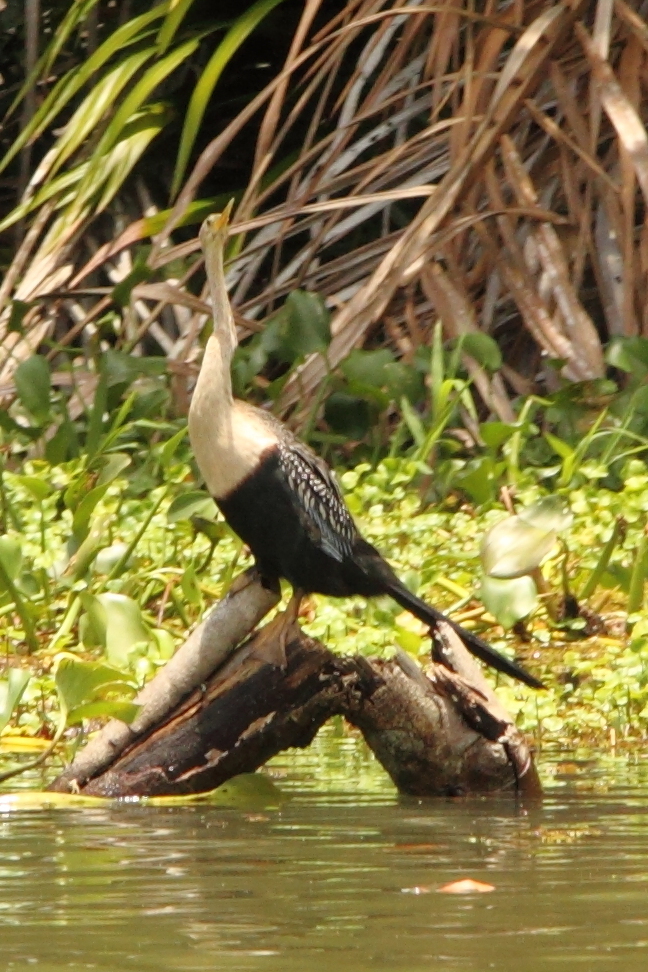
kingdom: Animalia
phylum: Chordata
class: Aves
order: Suliformes
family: Anhingidae
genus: Anhinga
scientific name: Anhinga anhinga
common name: Anhinga
